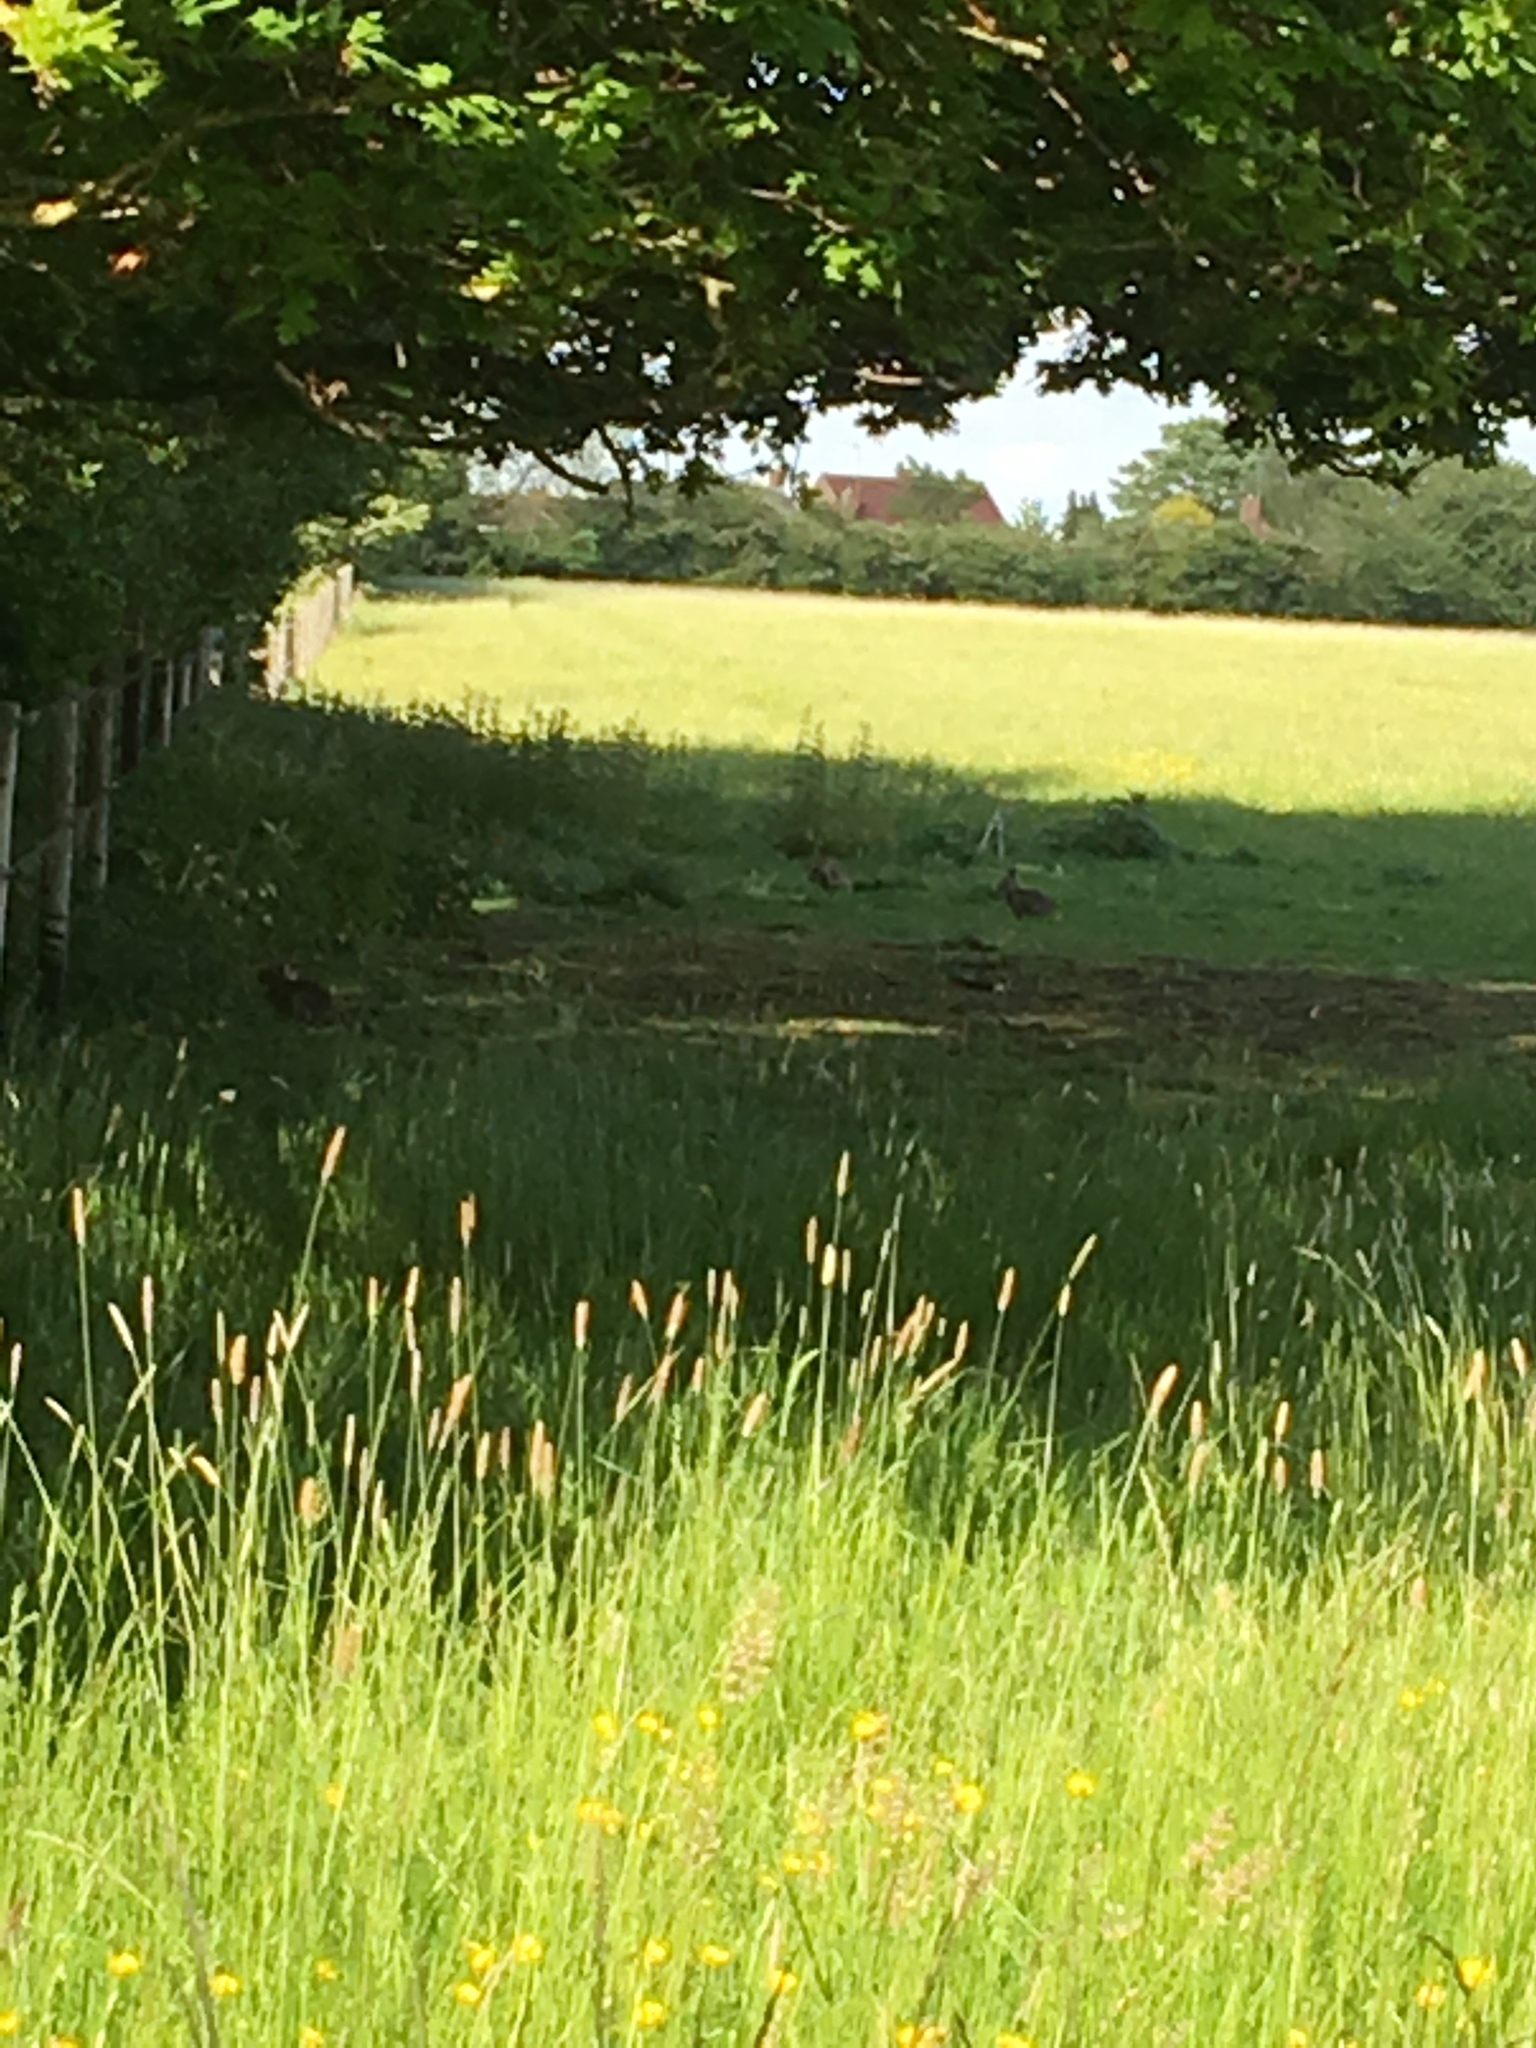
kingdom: Animalia
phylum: Chordata
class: Mammalia
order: Lagomorpha
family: Leporidae
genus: Oryctolagus
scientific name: Oryctolagus cuniculus
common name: European rabbit
